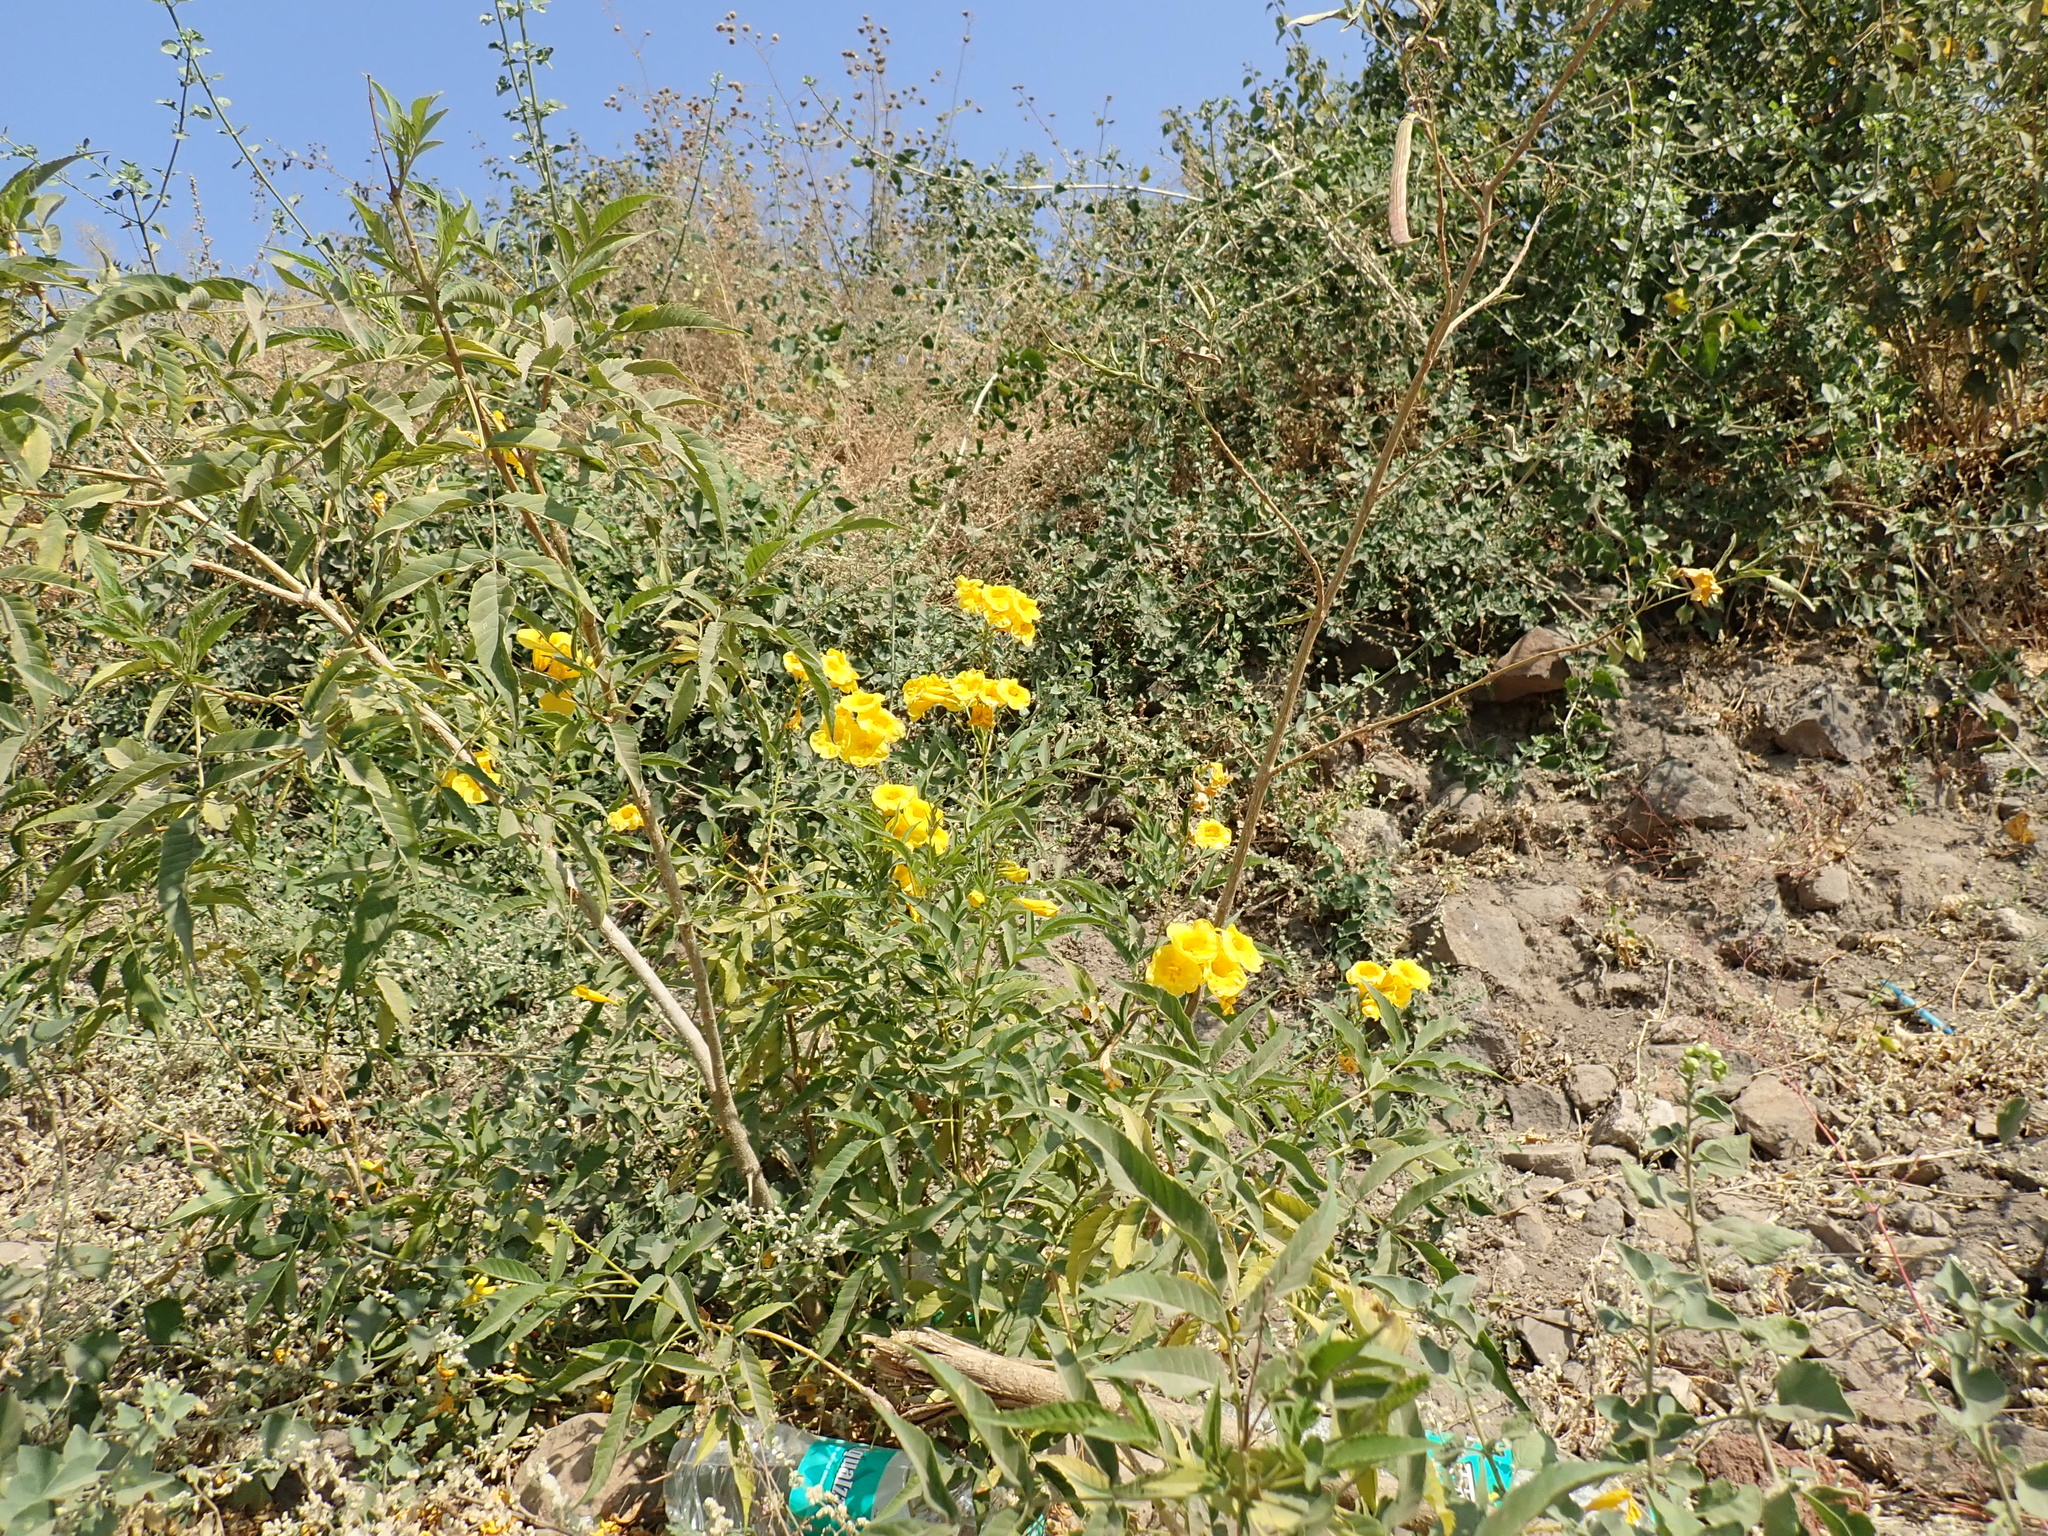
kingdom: Plantae
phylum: Tracheophyta
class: Magnoliopsida
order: Lamiales
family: Bignoniaceae
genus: Tecoma
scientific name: Tecoma stans
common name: Yellow trumpetbush
